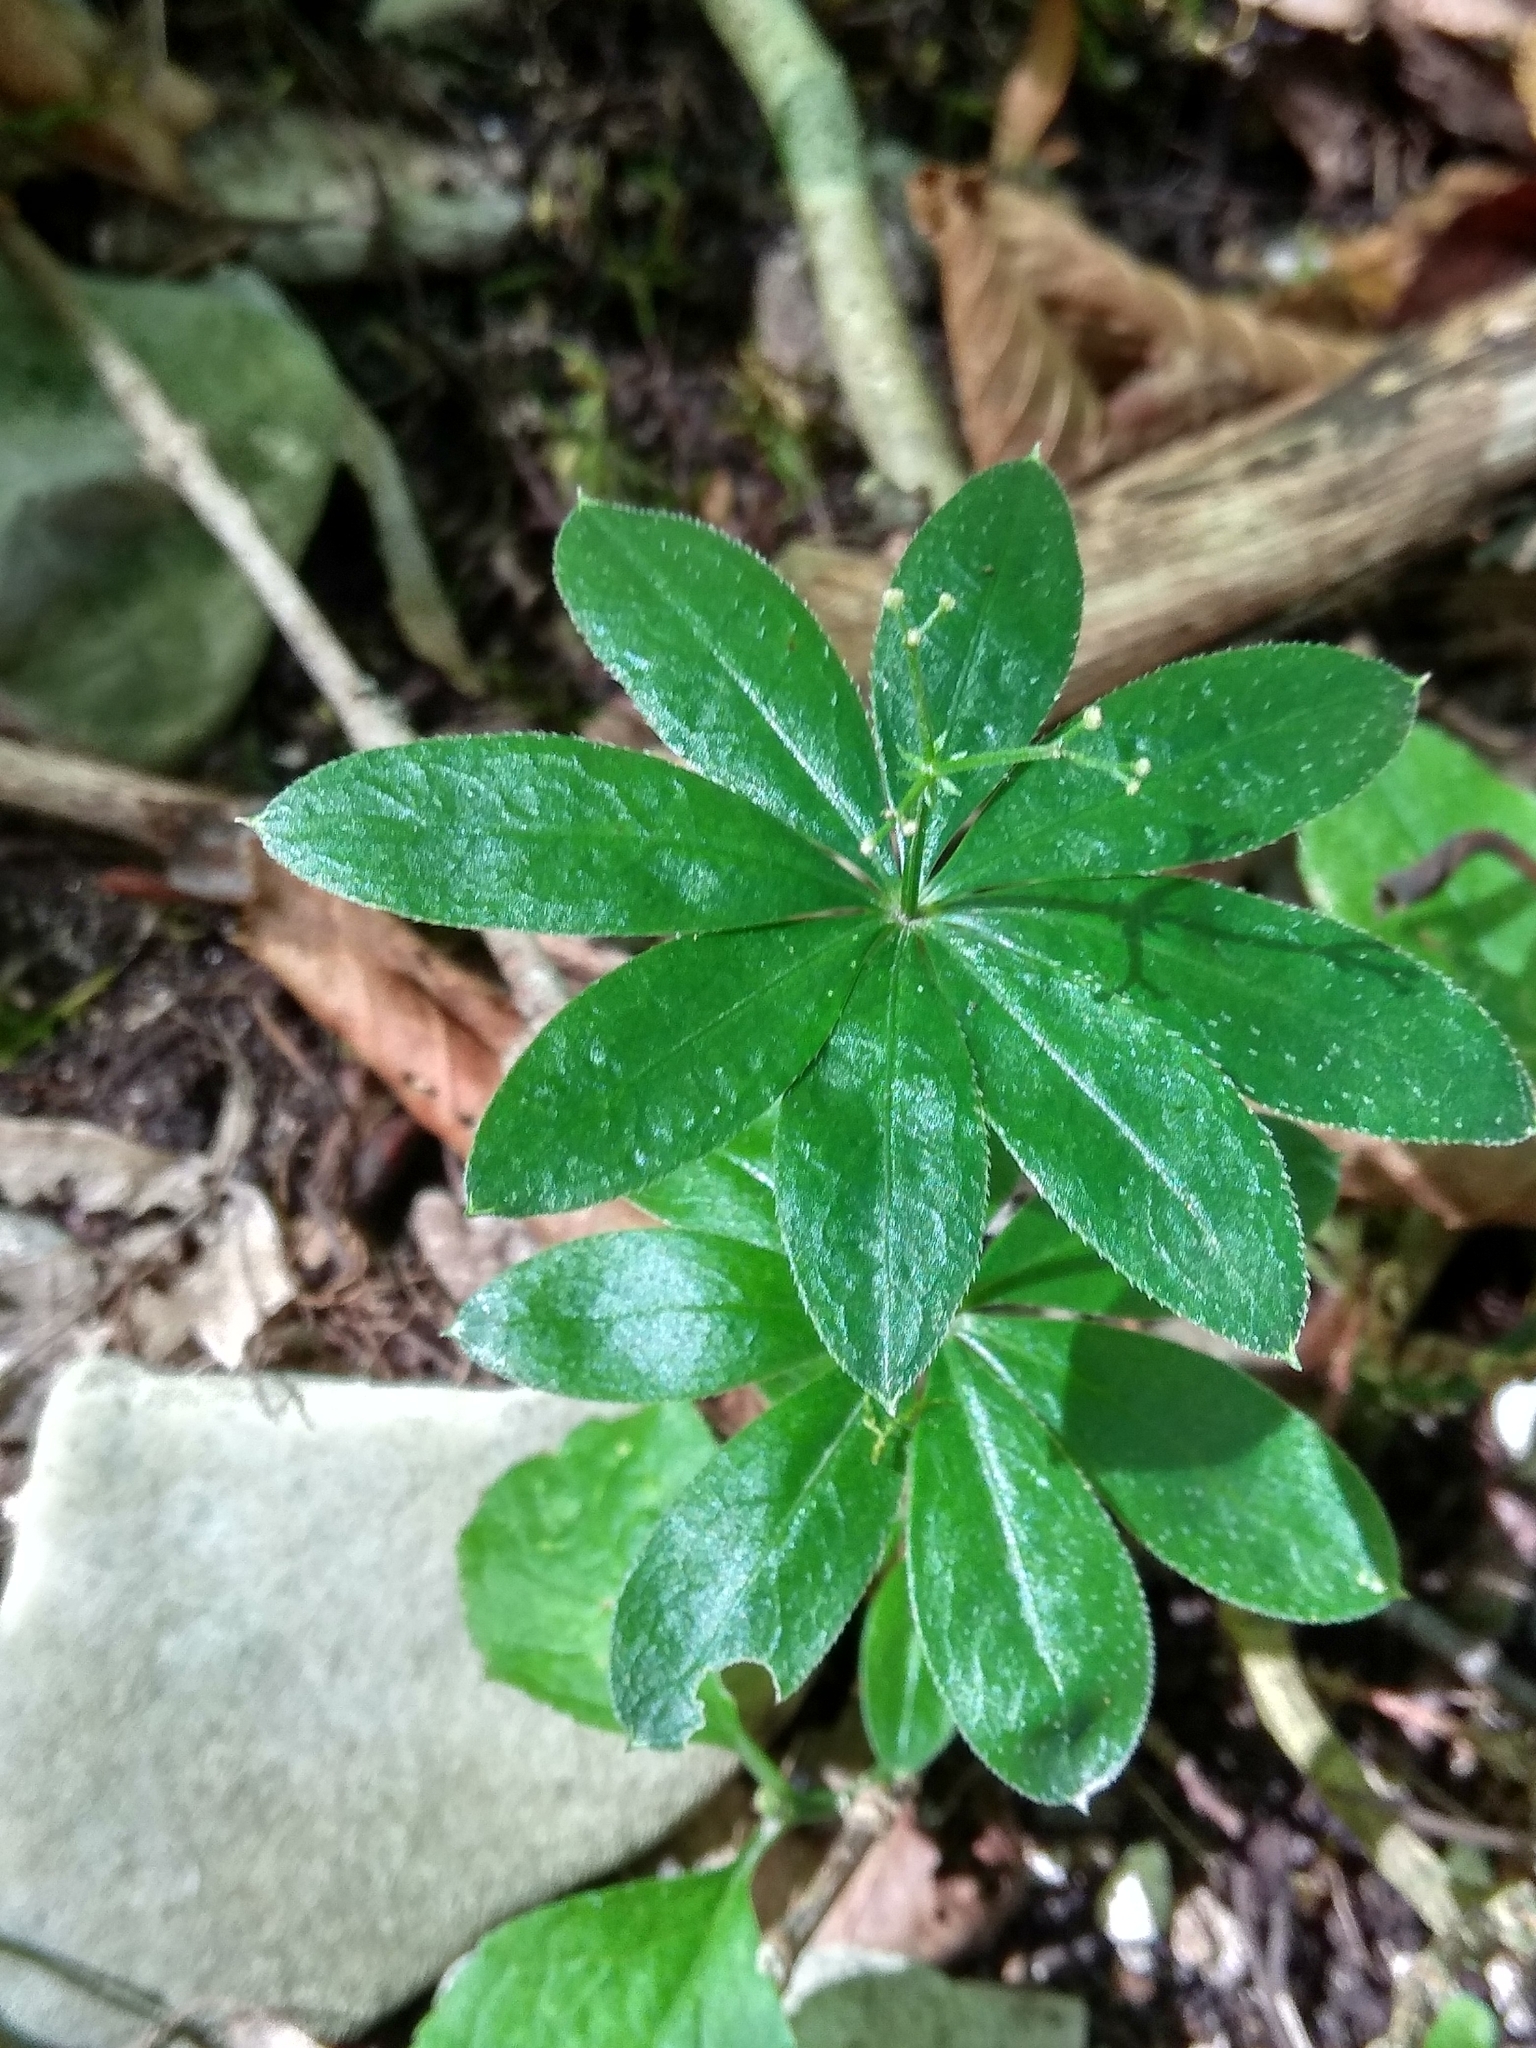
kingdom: Plantae
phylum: Tracheophyta
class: Magnoliopsida
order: Gentianales
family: Rubiaceae
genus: Galium
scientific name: Galium odoratum
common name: Sweet woodruff
